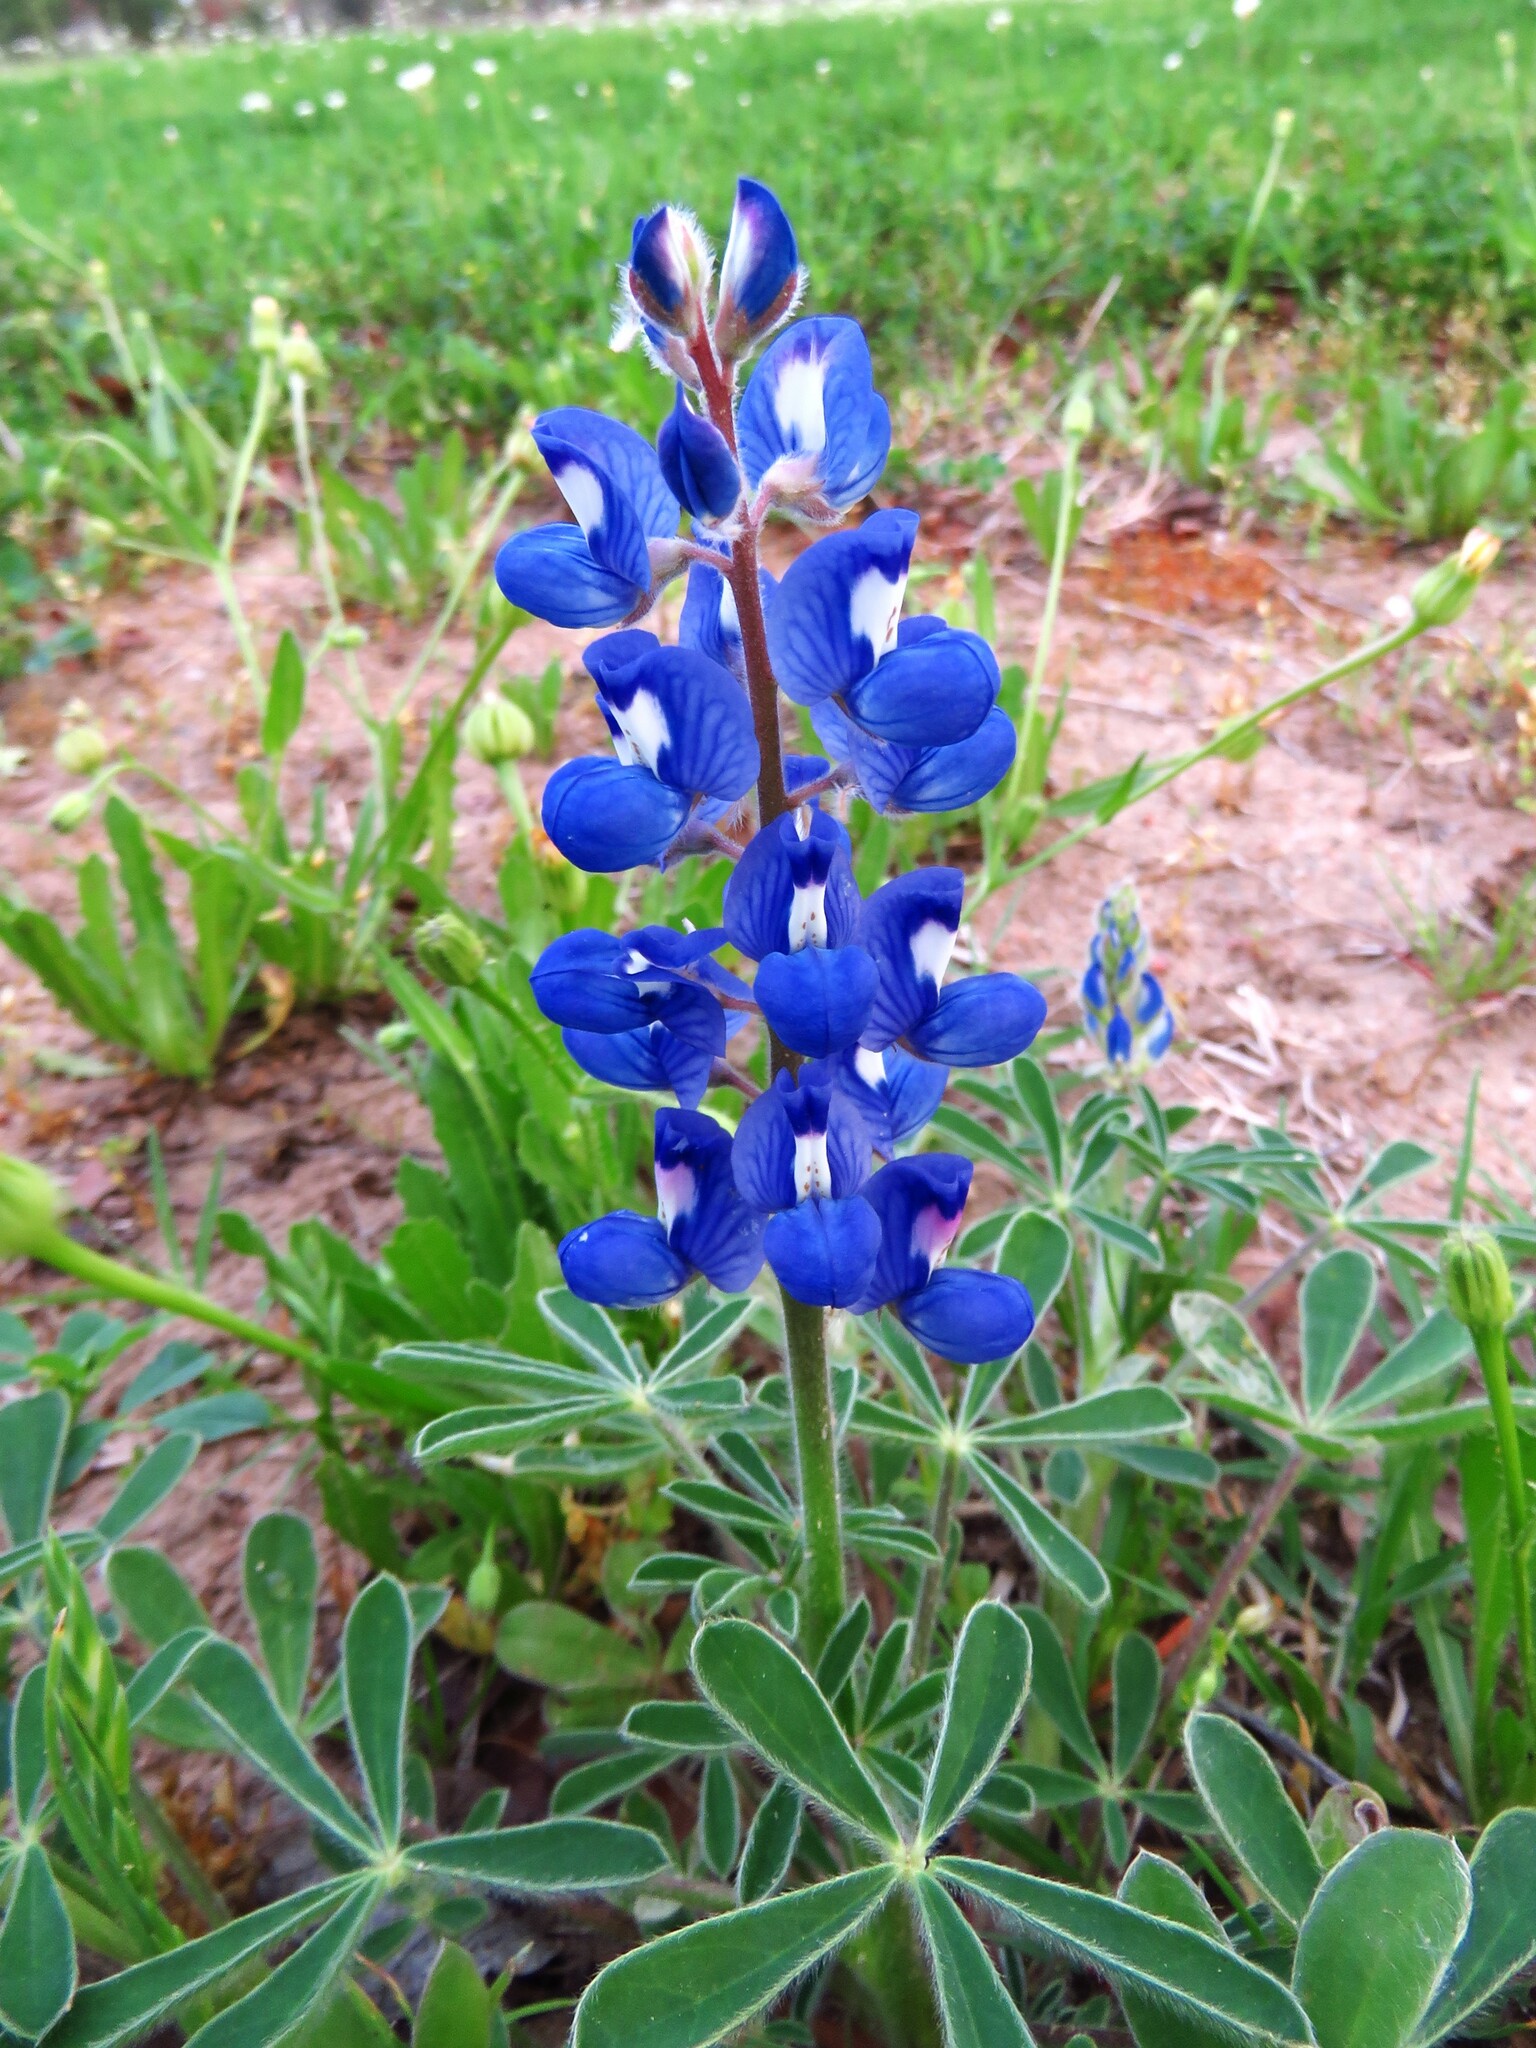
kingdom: Plantae
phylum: Tracheophyta
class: Magnoliopsida
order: Fabales
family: Fabaceae
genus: Lupinus
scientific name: Lupinus subcarnosus
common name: Texas bluebonnet
